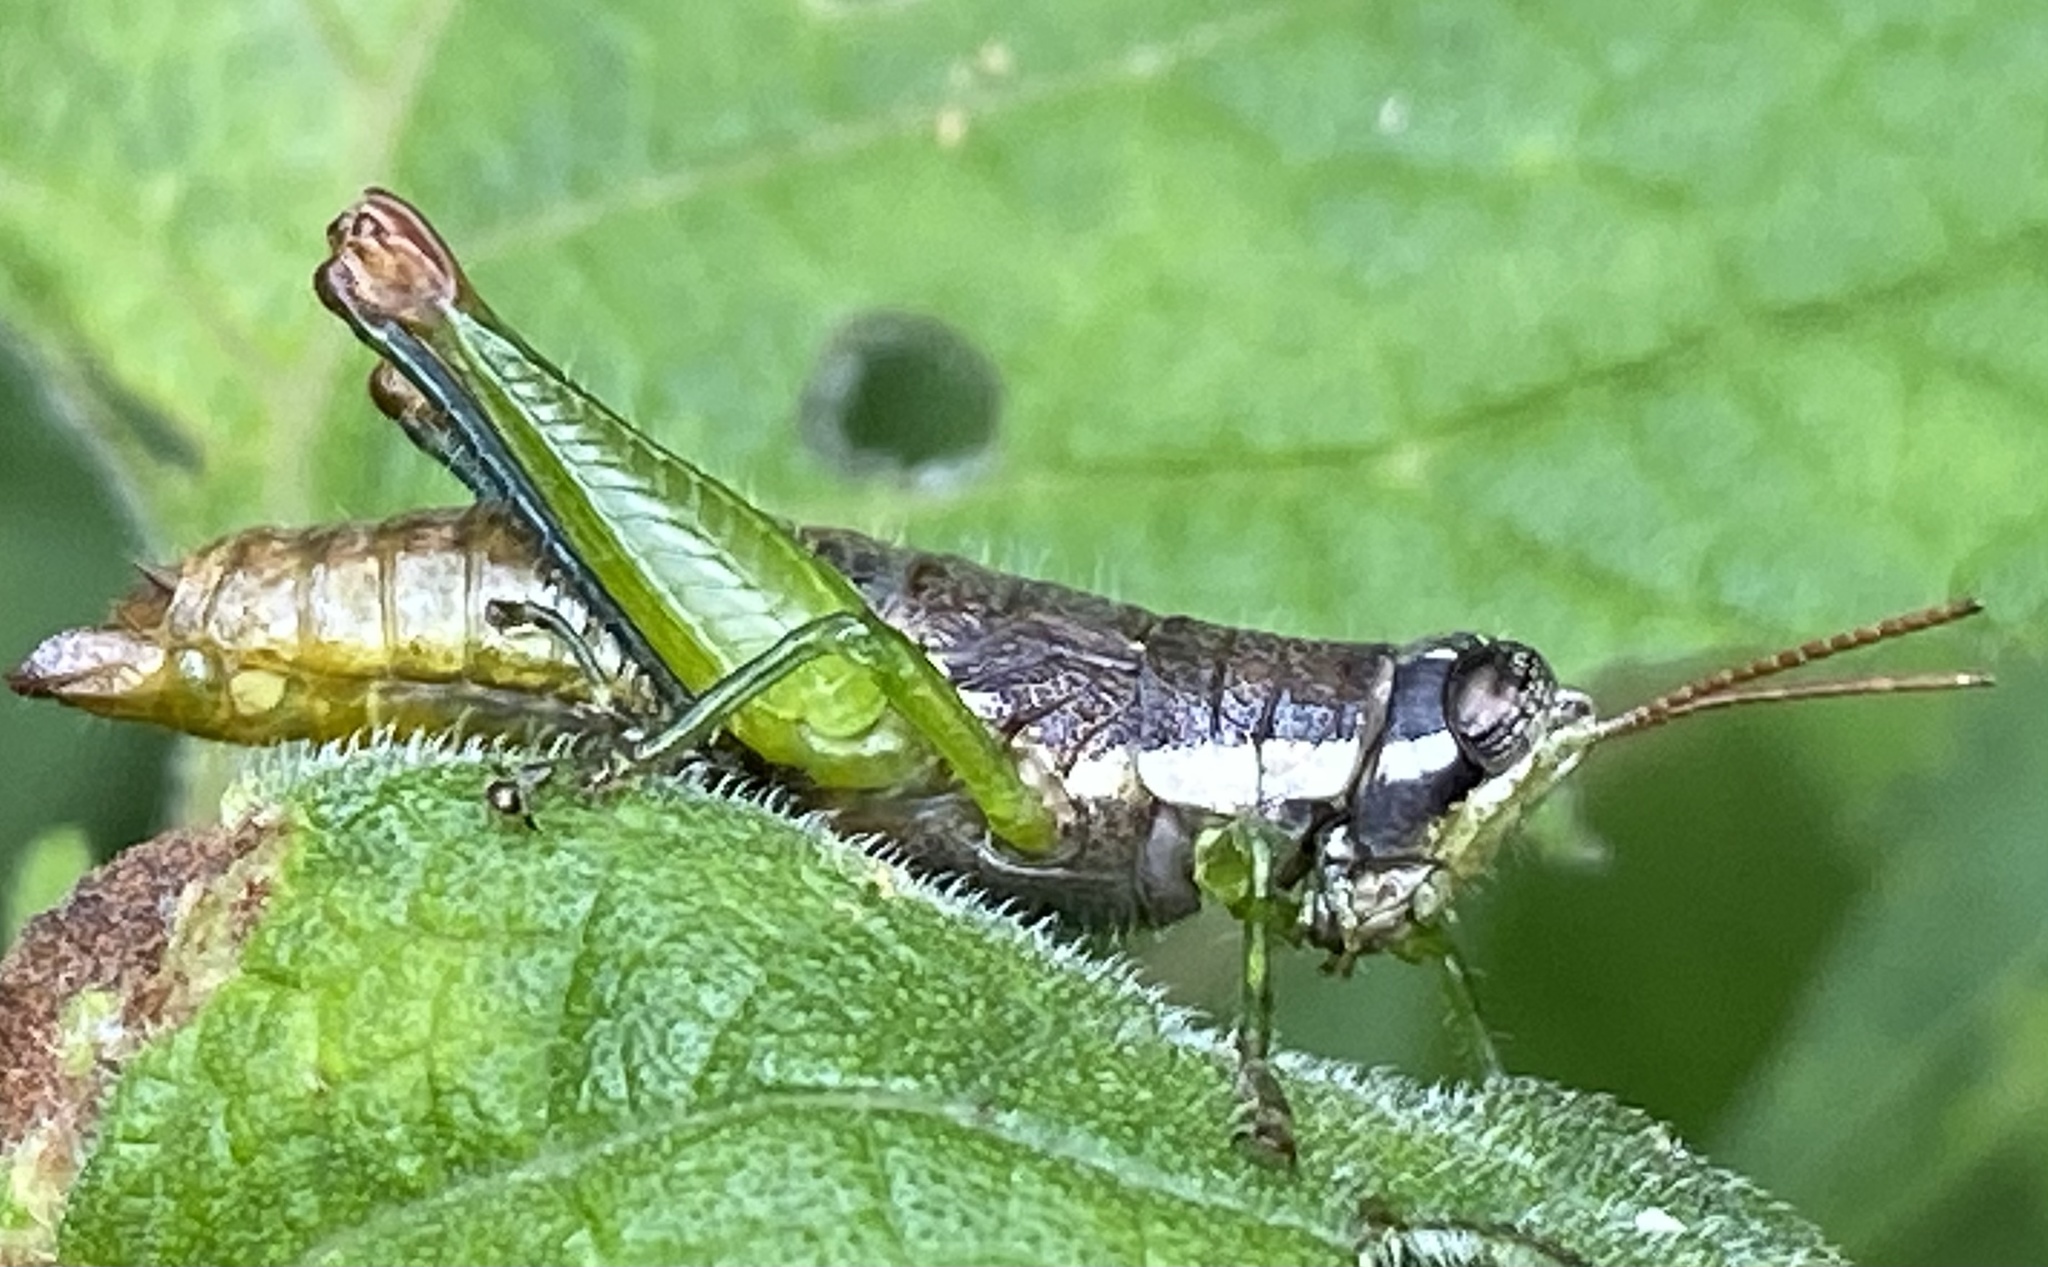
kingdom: Animalia
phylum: Arthropoda
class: Insecta
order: Orthoptera
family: Acrididae
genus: Sitalces
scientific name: Sitalces volxemi
